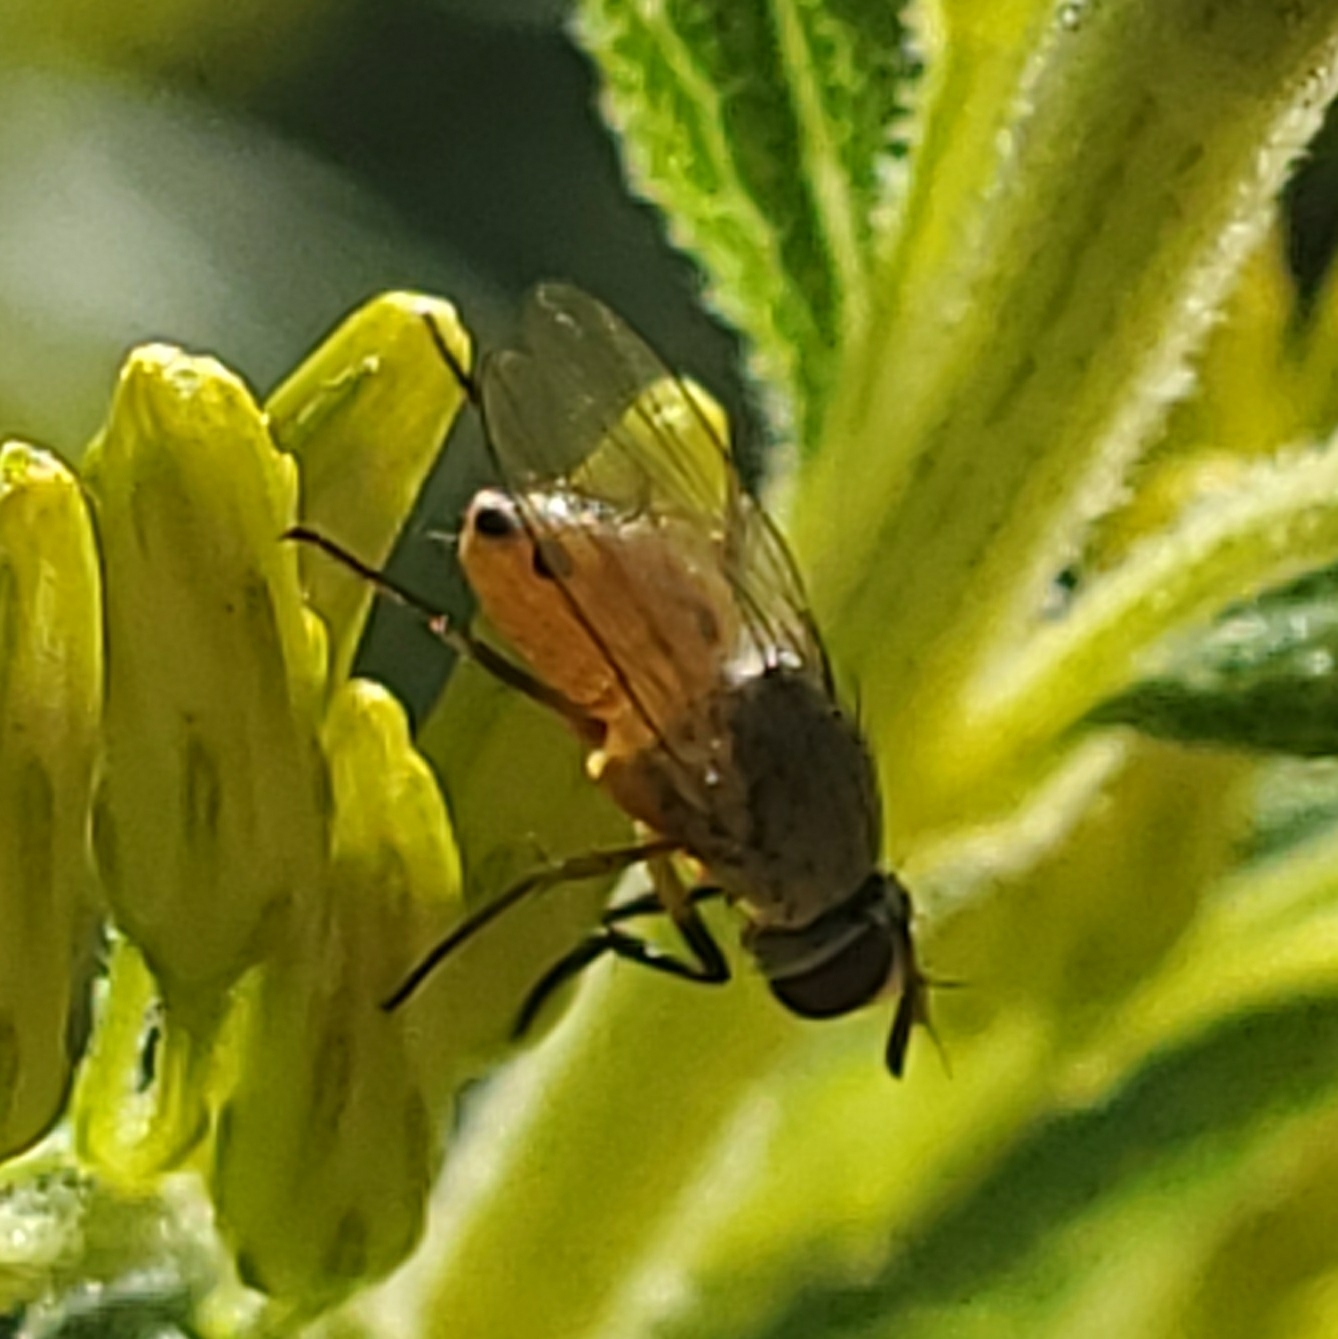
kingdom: Animalia
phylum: Arthropoda
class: Insecta
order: Diptera
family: Muscidae
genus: Atherigona
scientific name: Atherigona reversura
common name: Bermudagrass stem maggot
